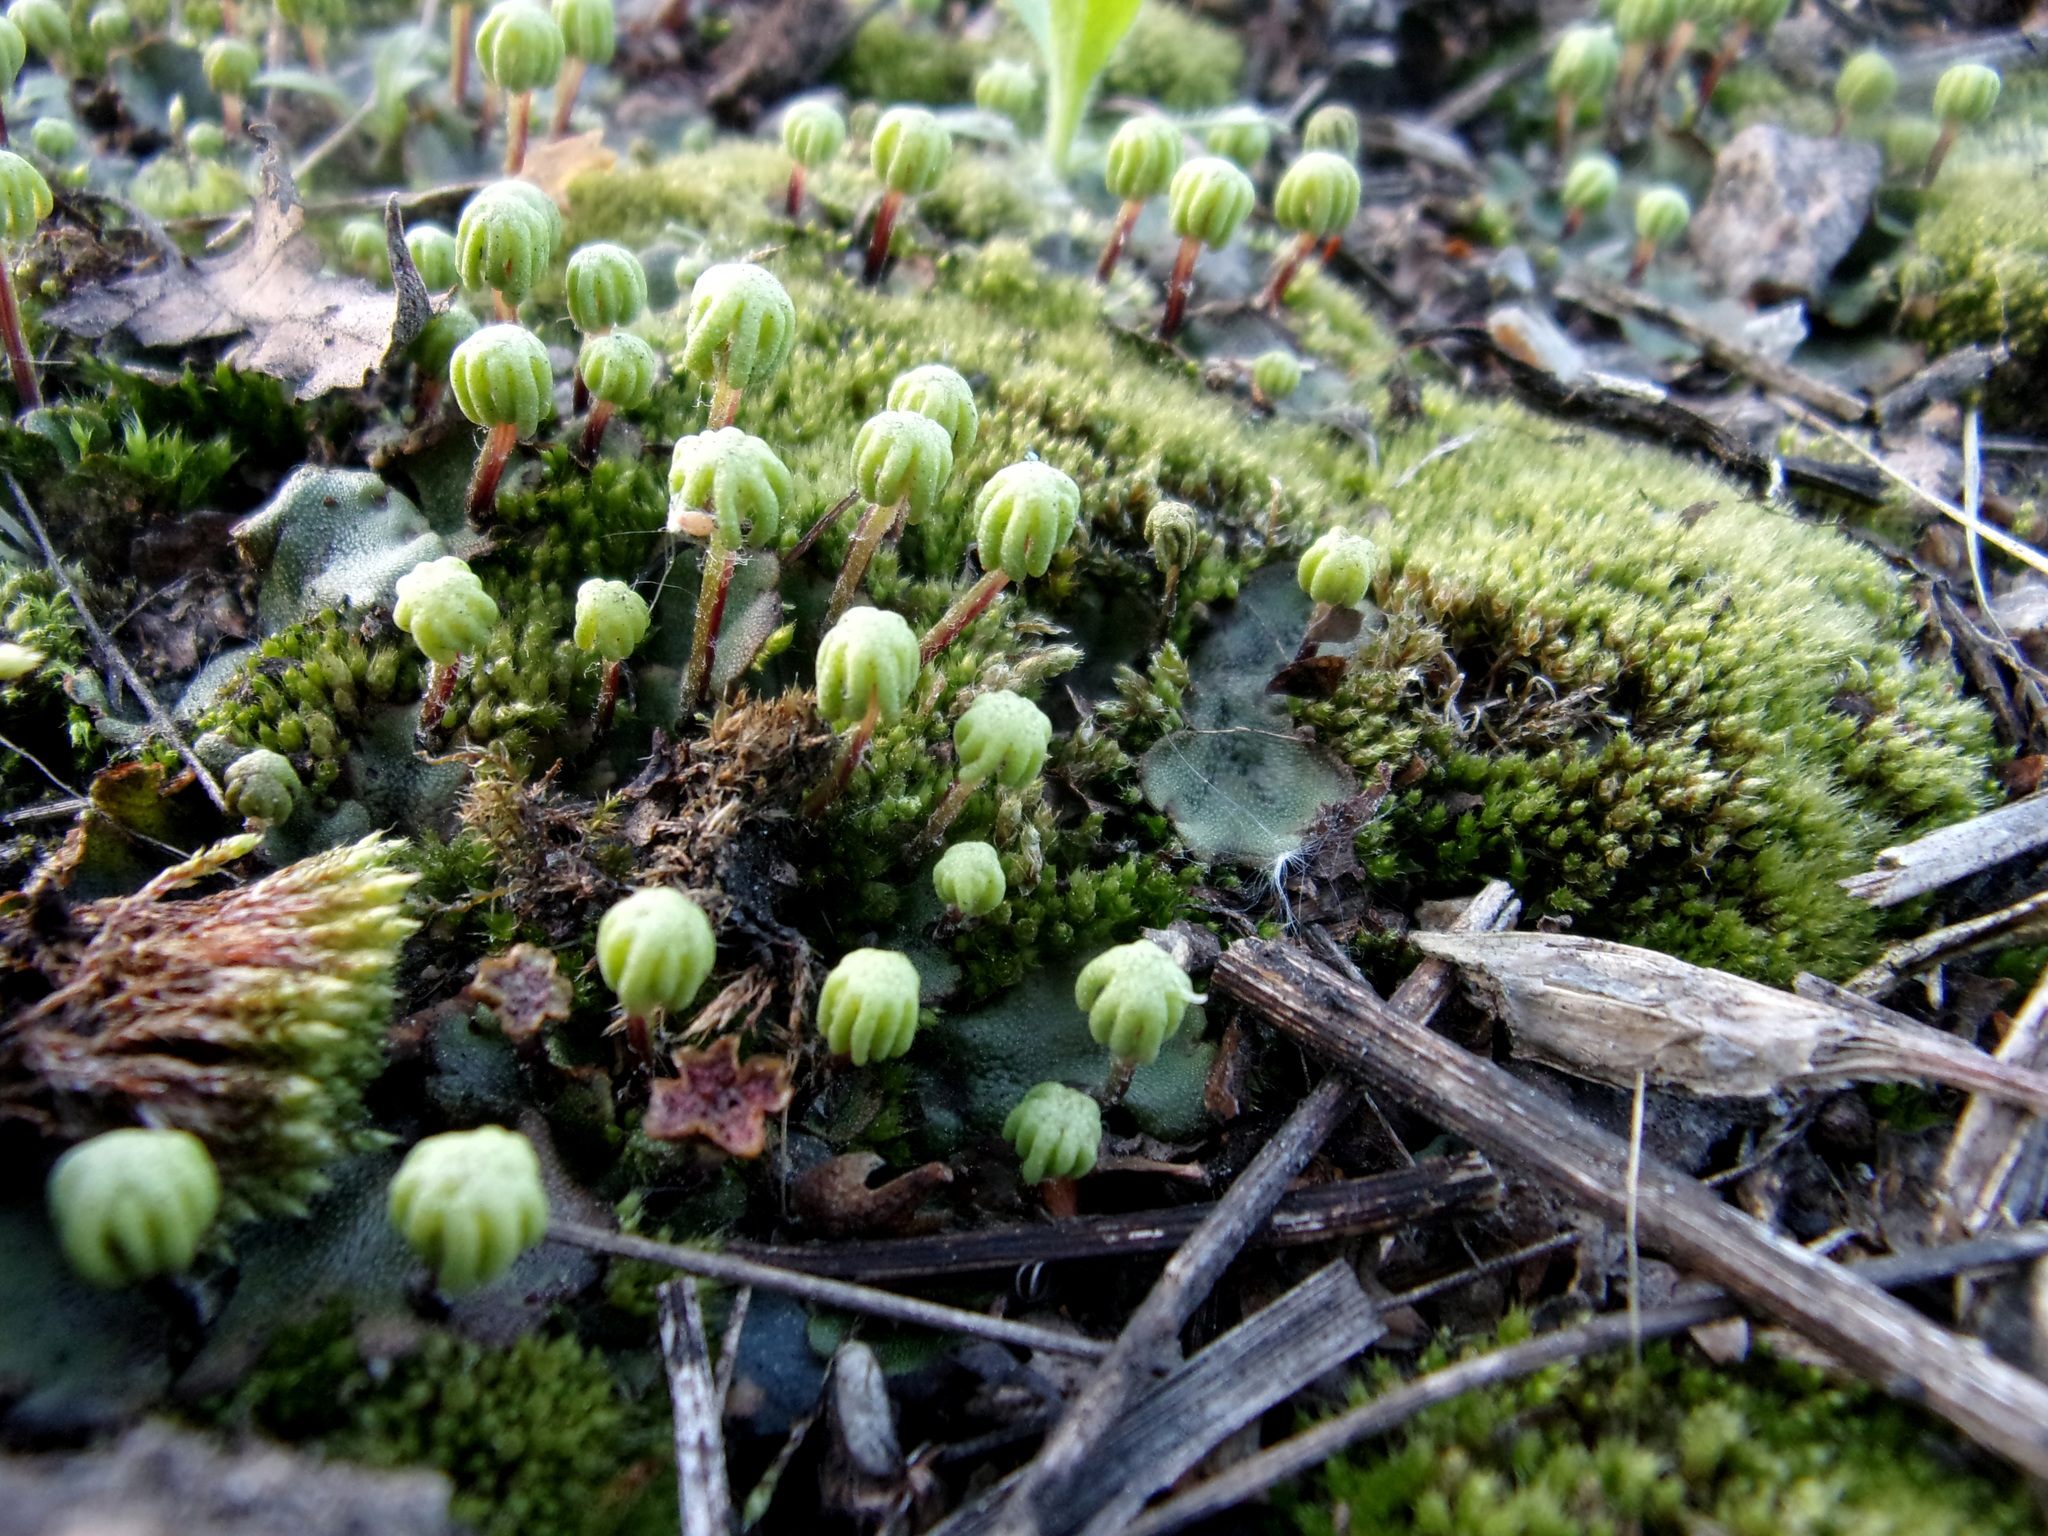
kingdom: Plantae
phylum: Marchantiophyta
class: Marchantiopsida
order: Marchantiales
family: Marchantiaceae
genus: Marchantia
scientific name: Marchantia polymorpha
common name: Common liverwort
